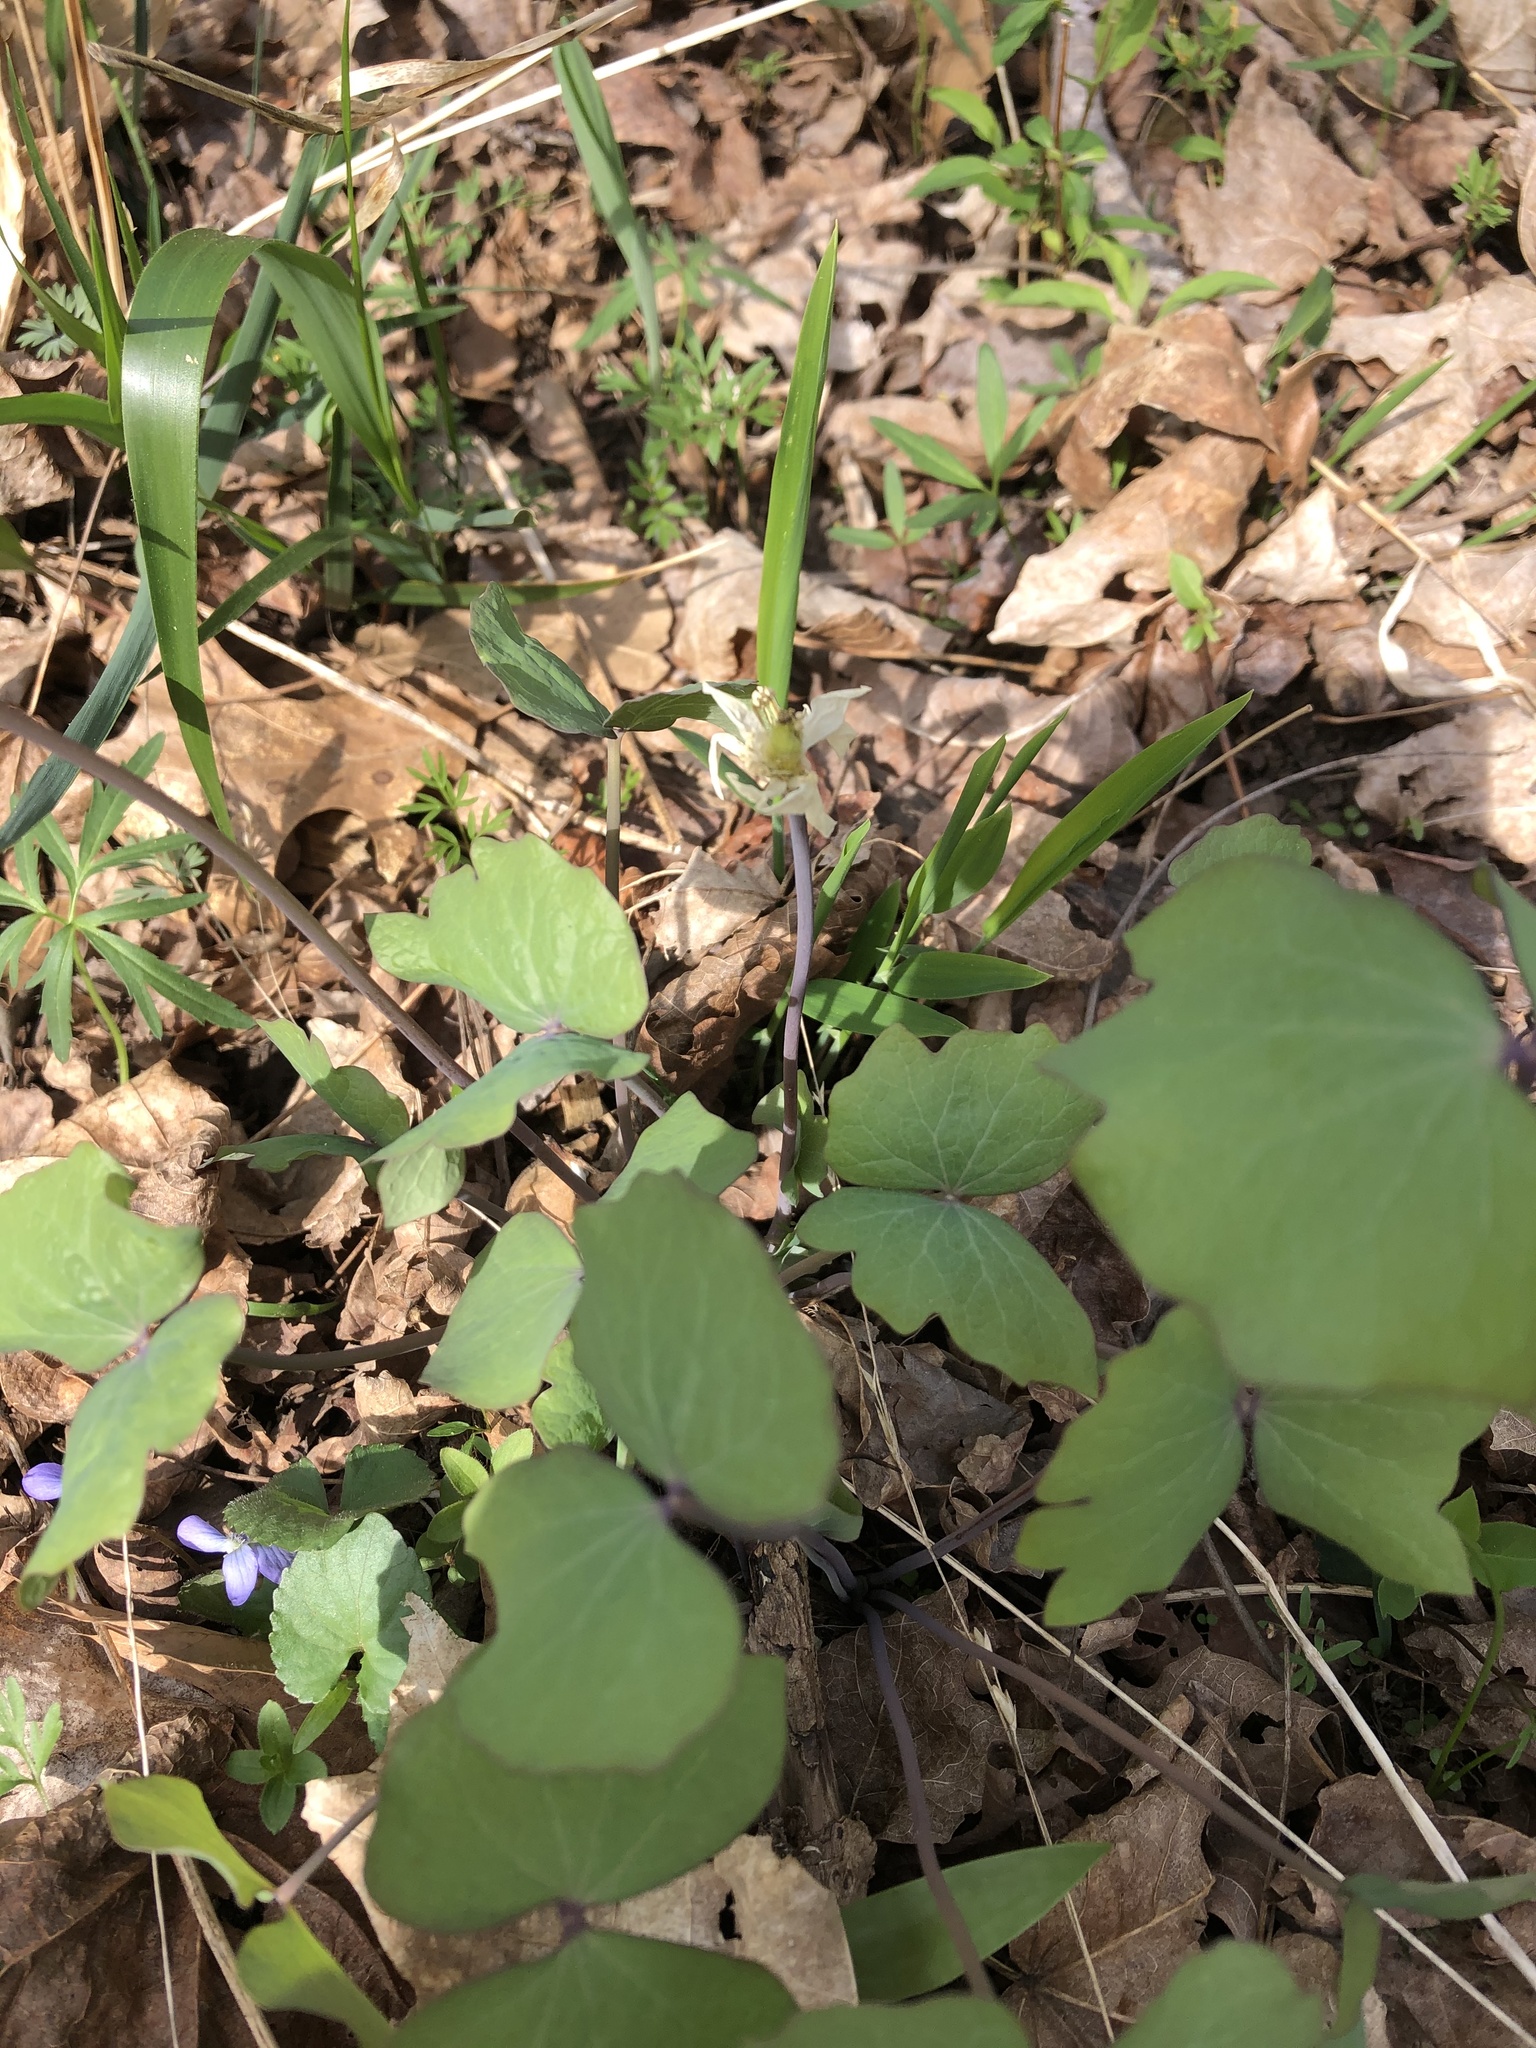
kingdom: Plantae
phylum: Tracheophyta
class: Magnoliopsida
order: Ranunculales
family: Berberidaceae
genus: Jeffersonia
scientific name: Jeffersonia diphylla
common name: Rheumatism-root
